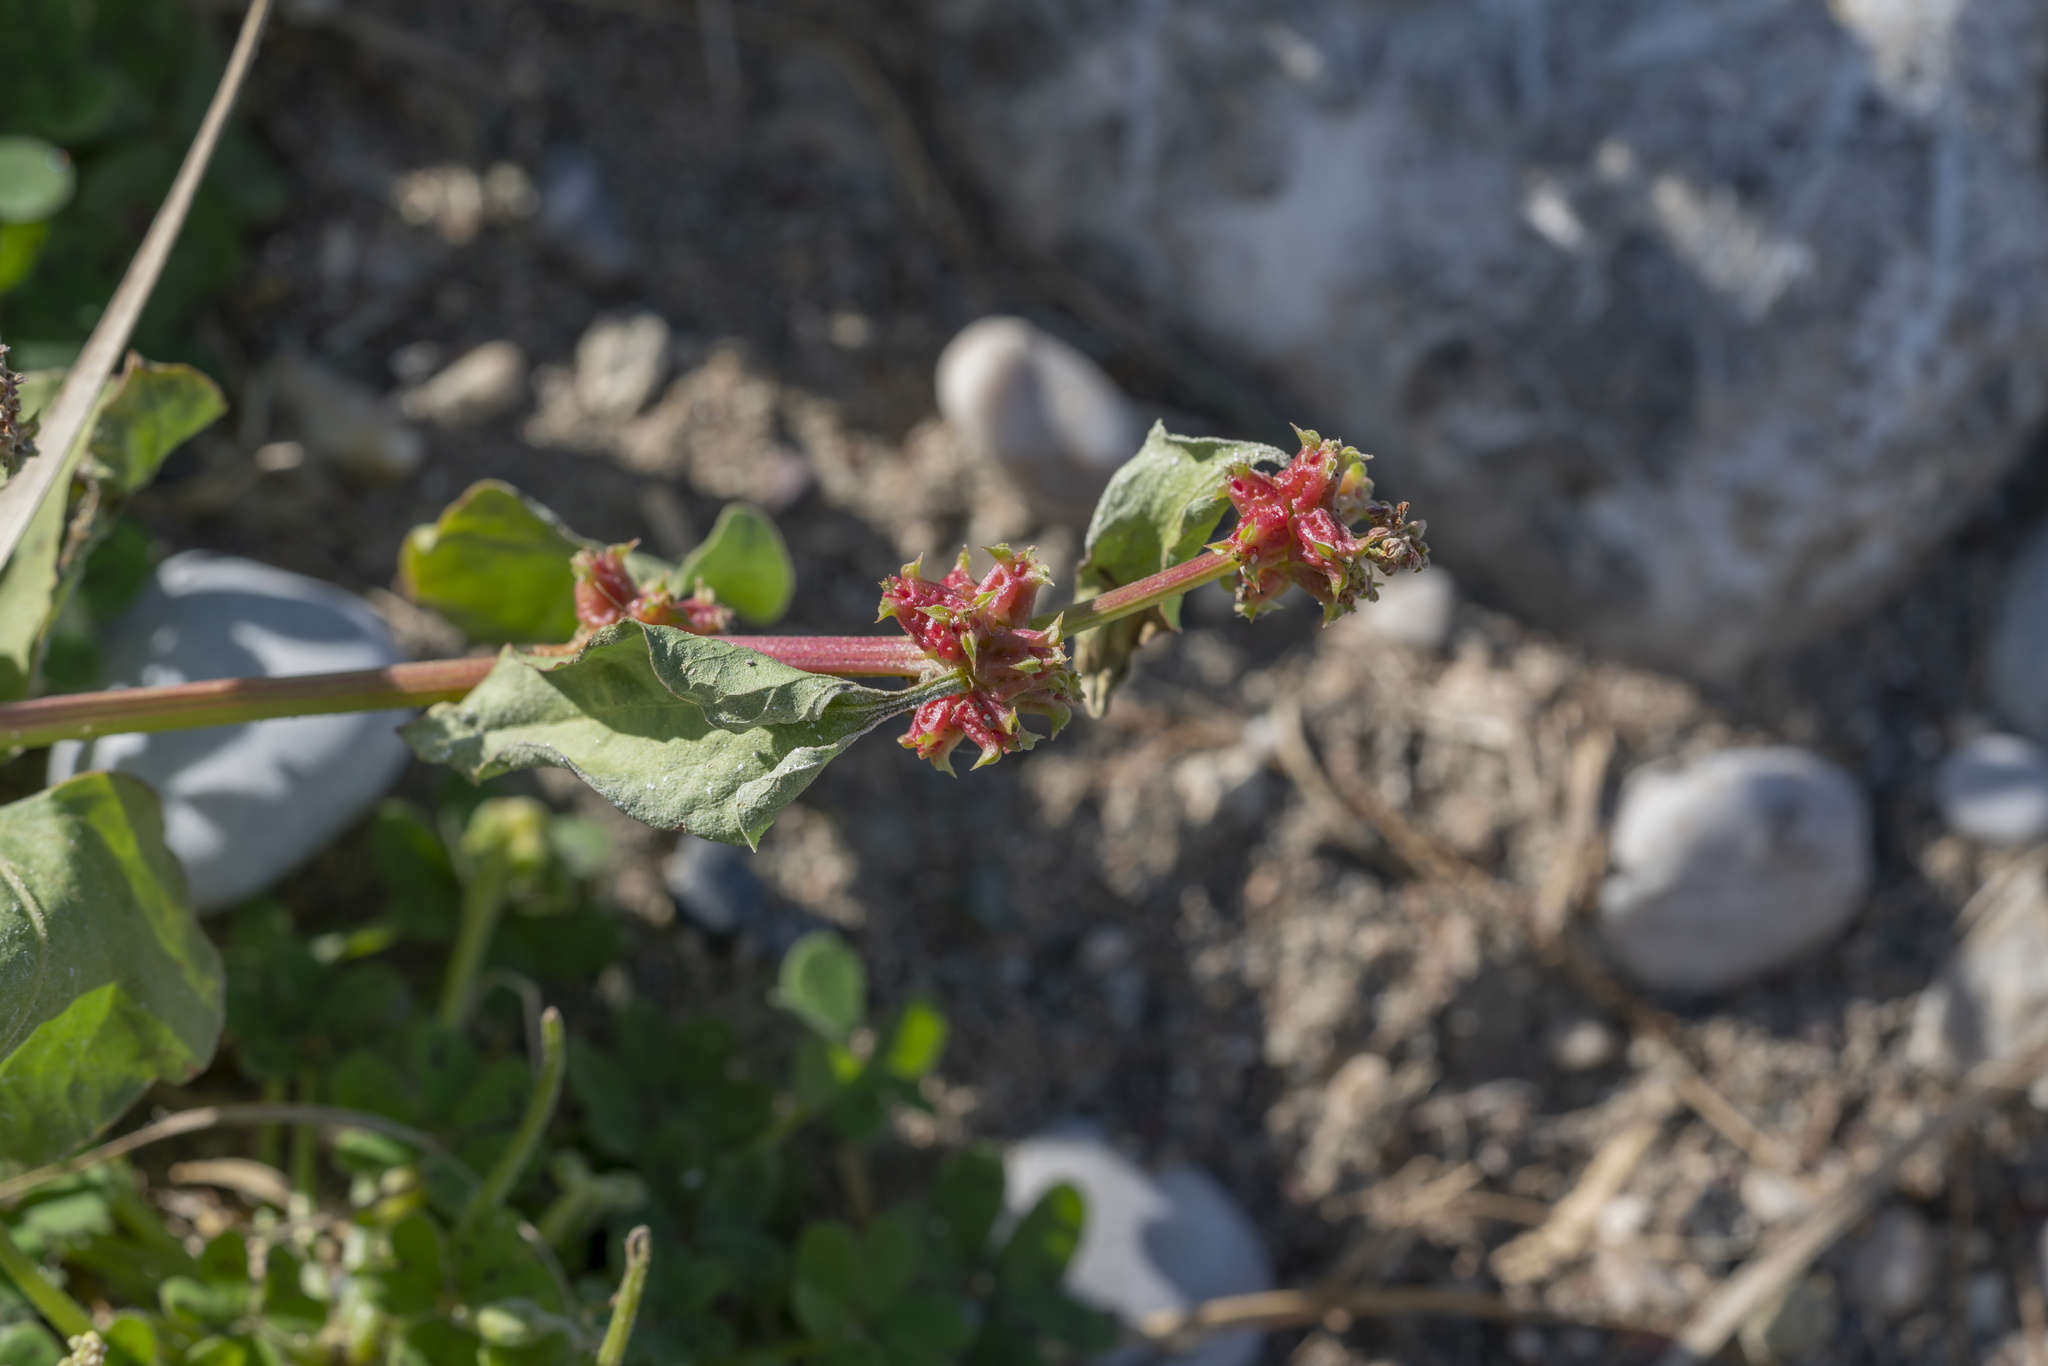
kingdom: Plantae
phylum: Tracheophyta
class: Magnoliopsida
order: Caryophyllales
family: Polygonaceae
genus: Rumex
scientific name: Rumex spinosus
